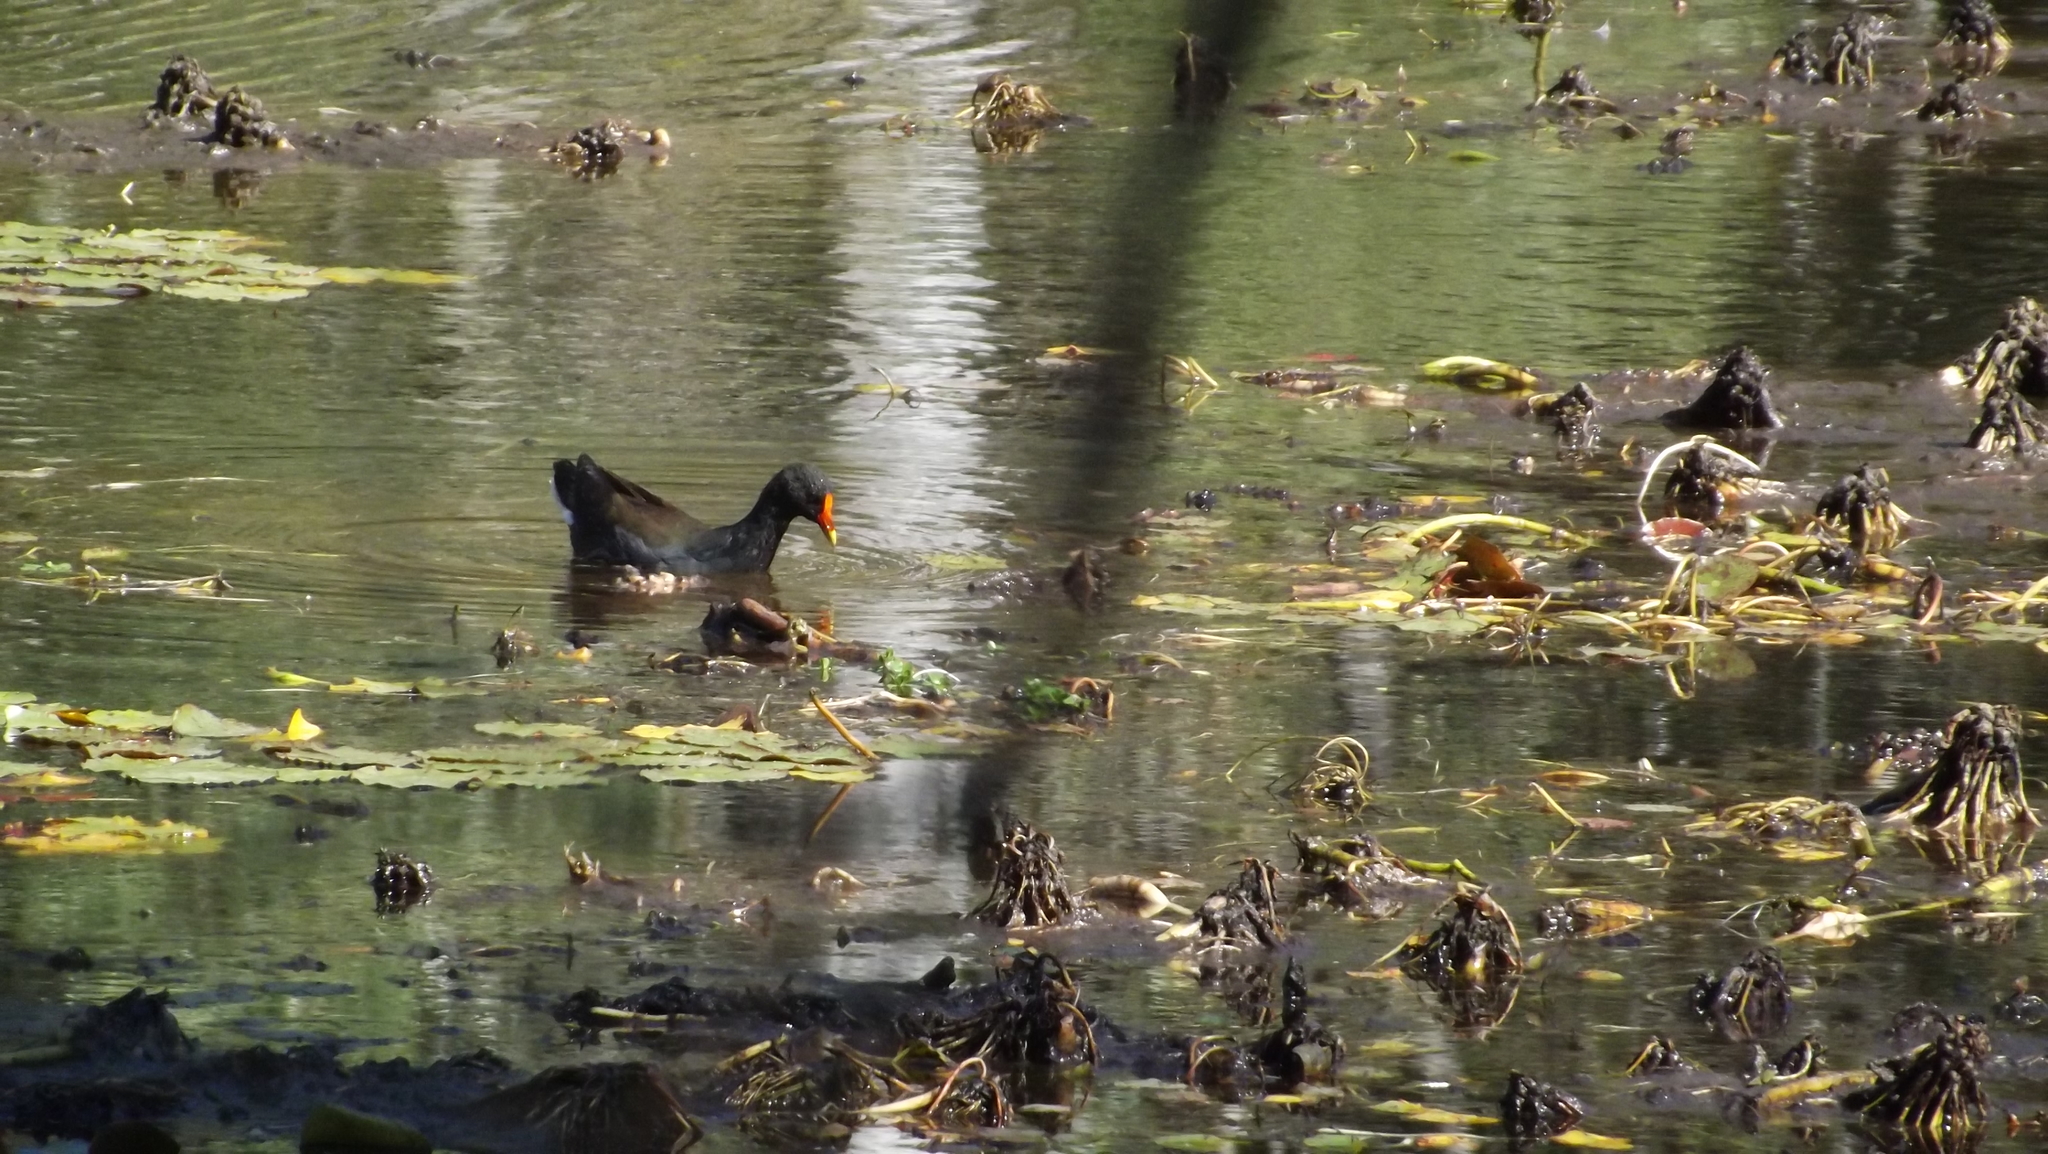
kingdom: Animalia
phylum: Chordata
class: Aves
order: Gruiformes
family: Rallidae
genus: Gallinula
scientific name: Gallinula tenebrosa
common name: Dusky moorhen
